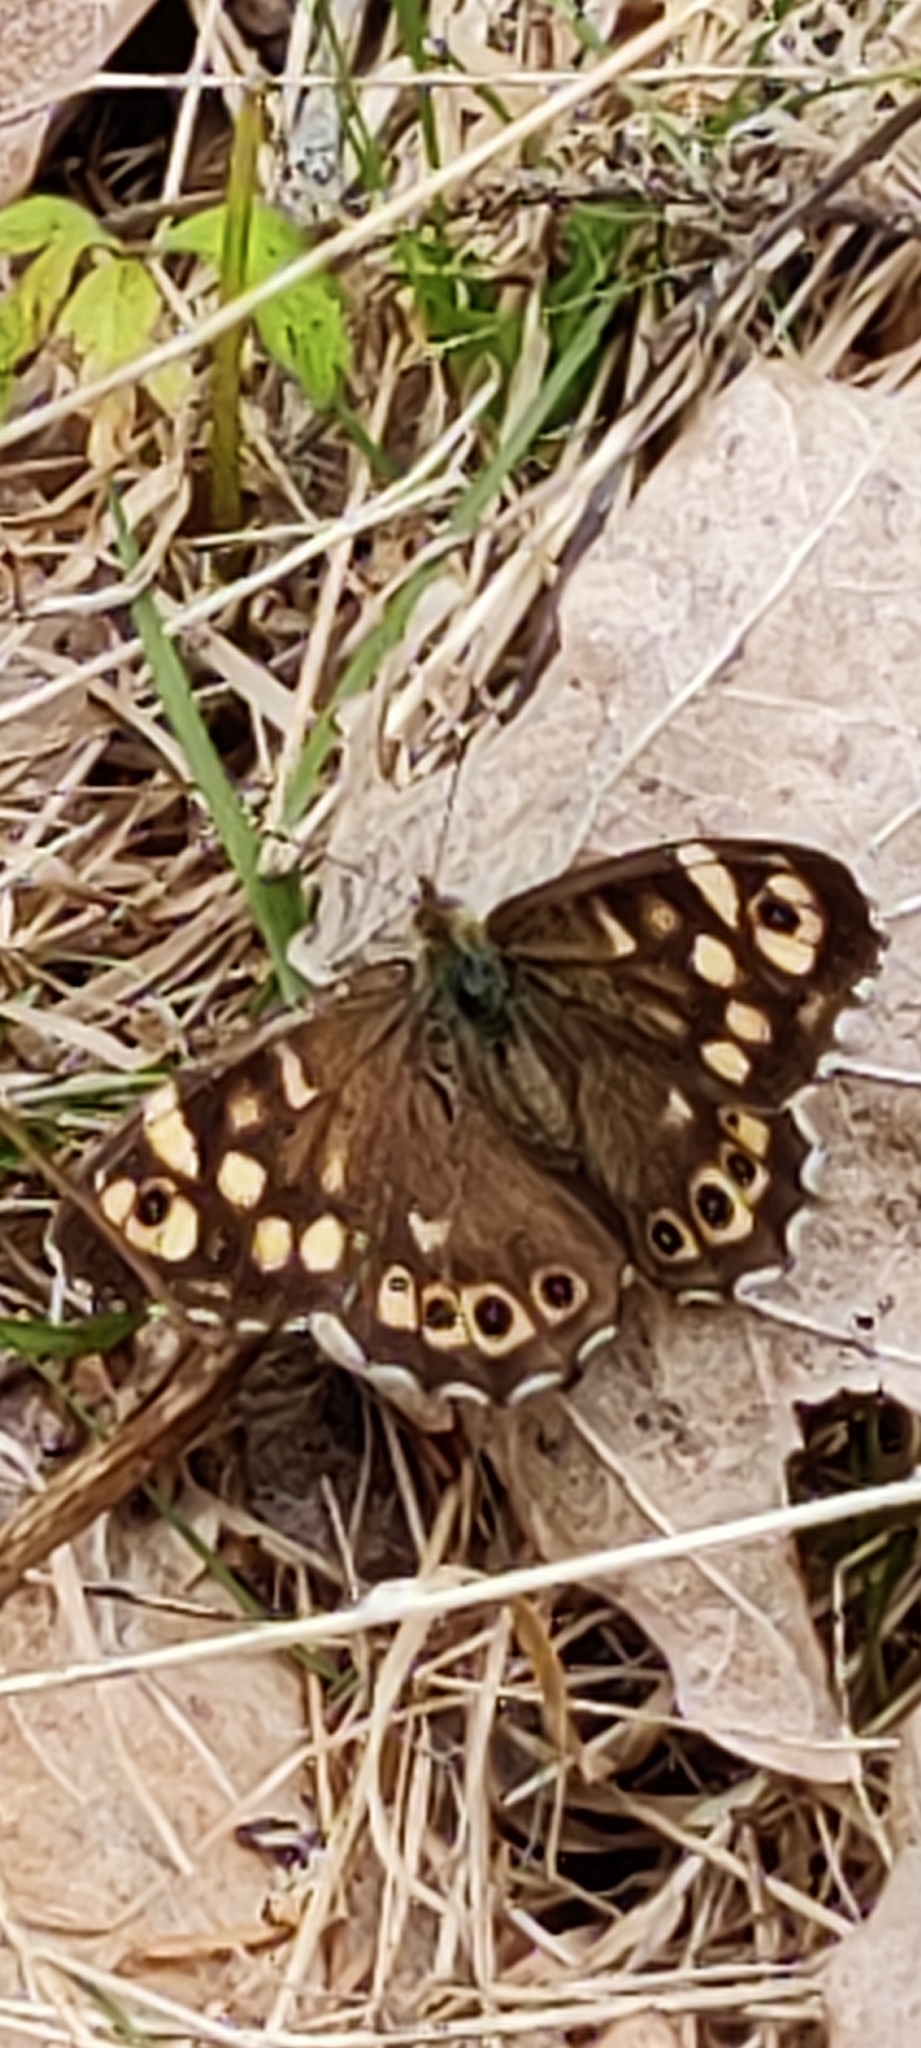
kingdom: Animalia
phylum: Arthropoda
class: Insecta
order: Lepidoptera
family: Nymphalidae
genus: Pararge
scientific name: Pararge aegeria
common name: Speckled wood
